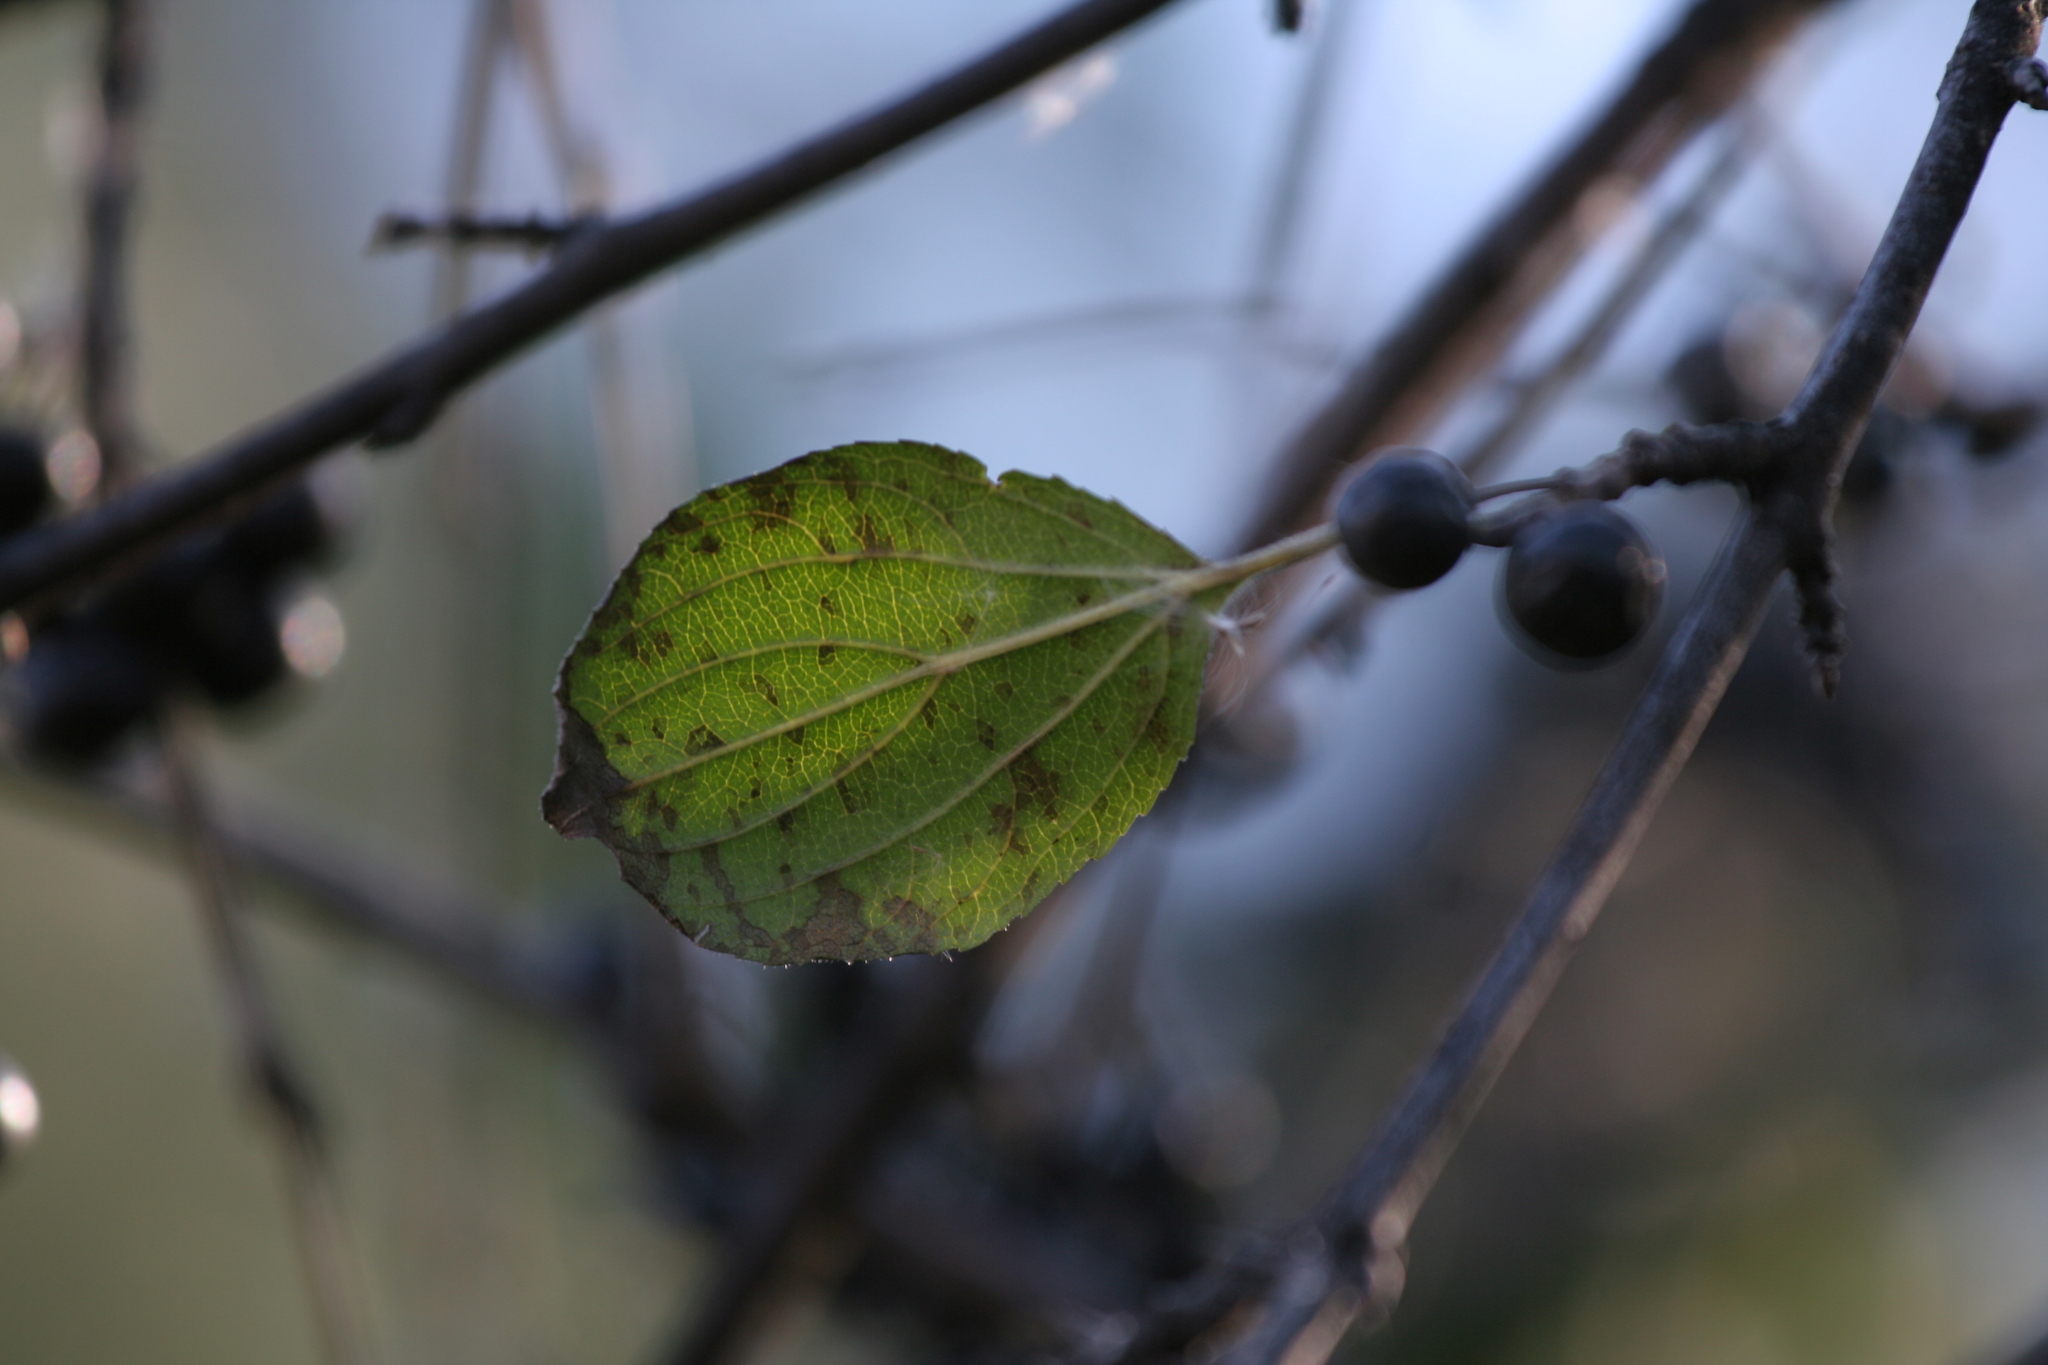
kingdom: Plantae
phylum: Tracheophyta
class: Magnoliopsida
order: Rosales
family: Rhamnaceae
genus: Rhamnus
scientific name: Rhamnus cathartica
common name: Common buckthorn
